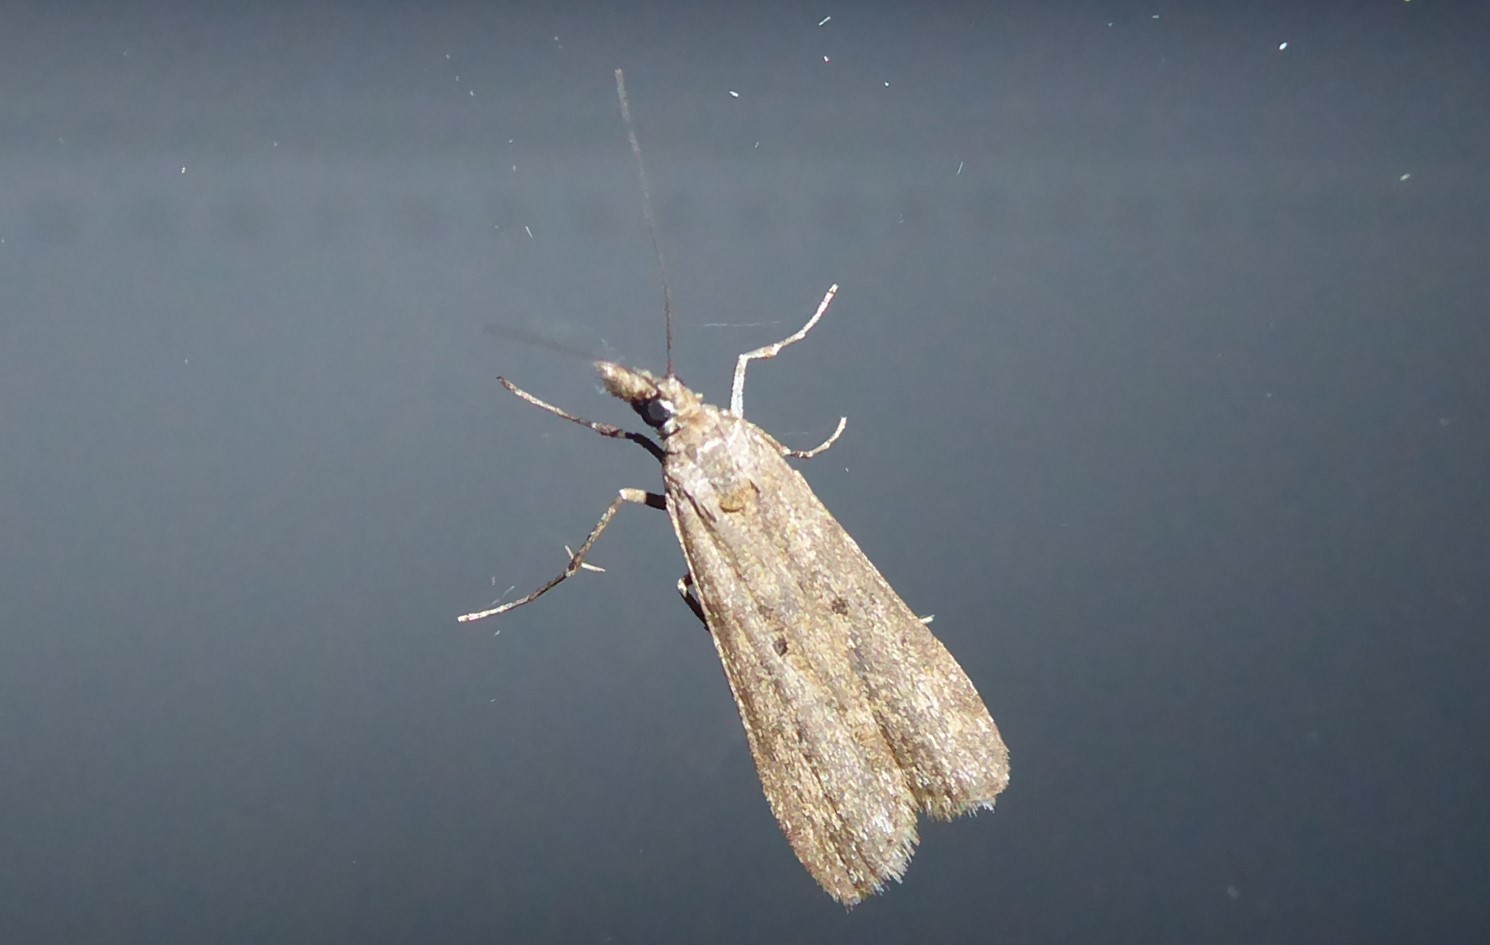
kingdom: Animalia
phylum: Arthropoda
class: Insecta
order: Lepidoptera
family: Crambidae
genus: Eudonia
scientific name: Eudonia leptalea
